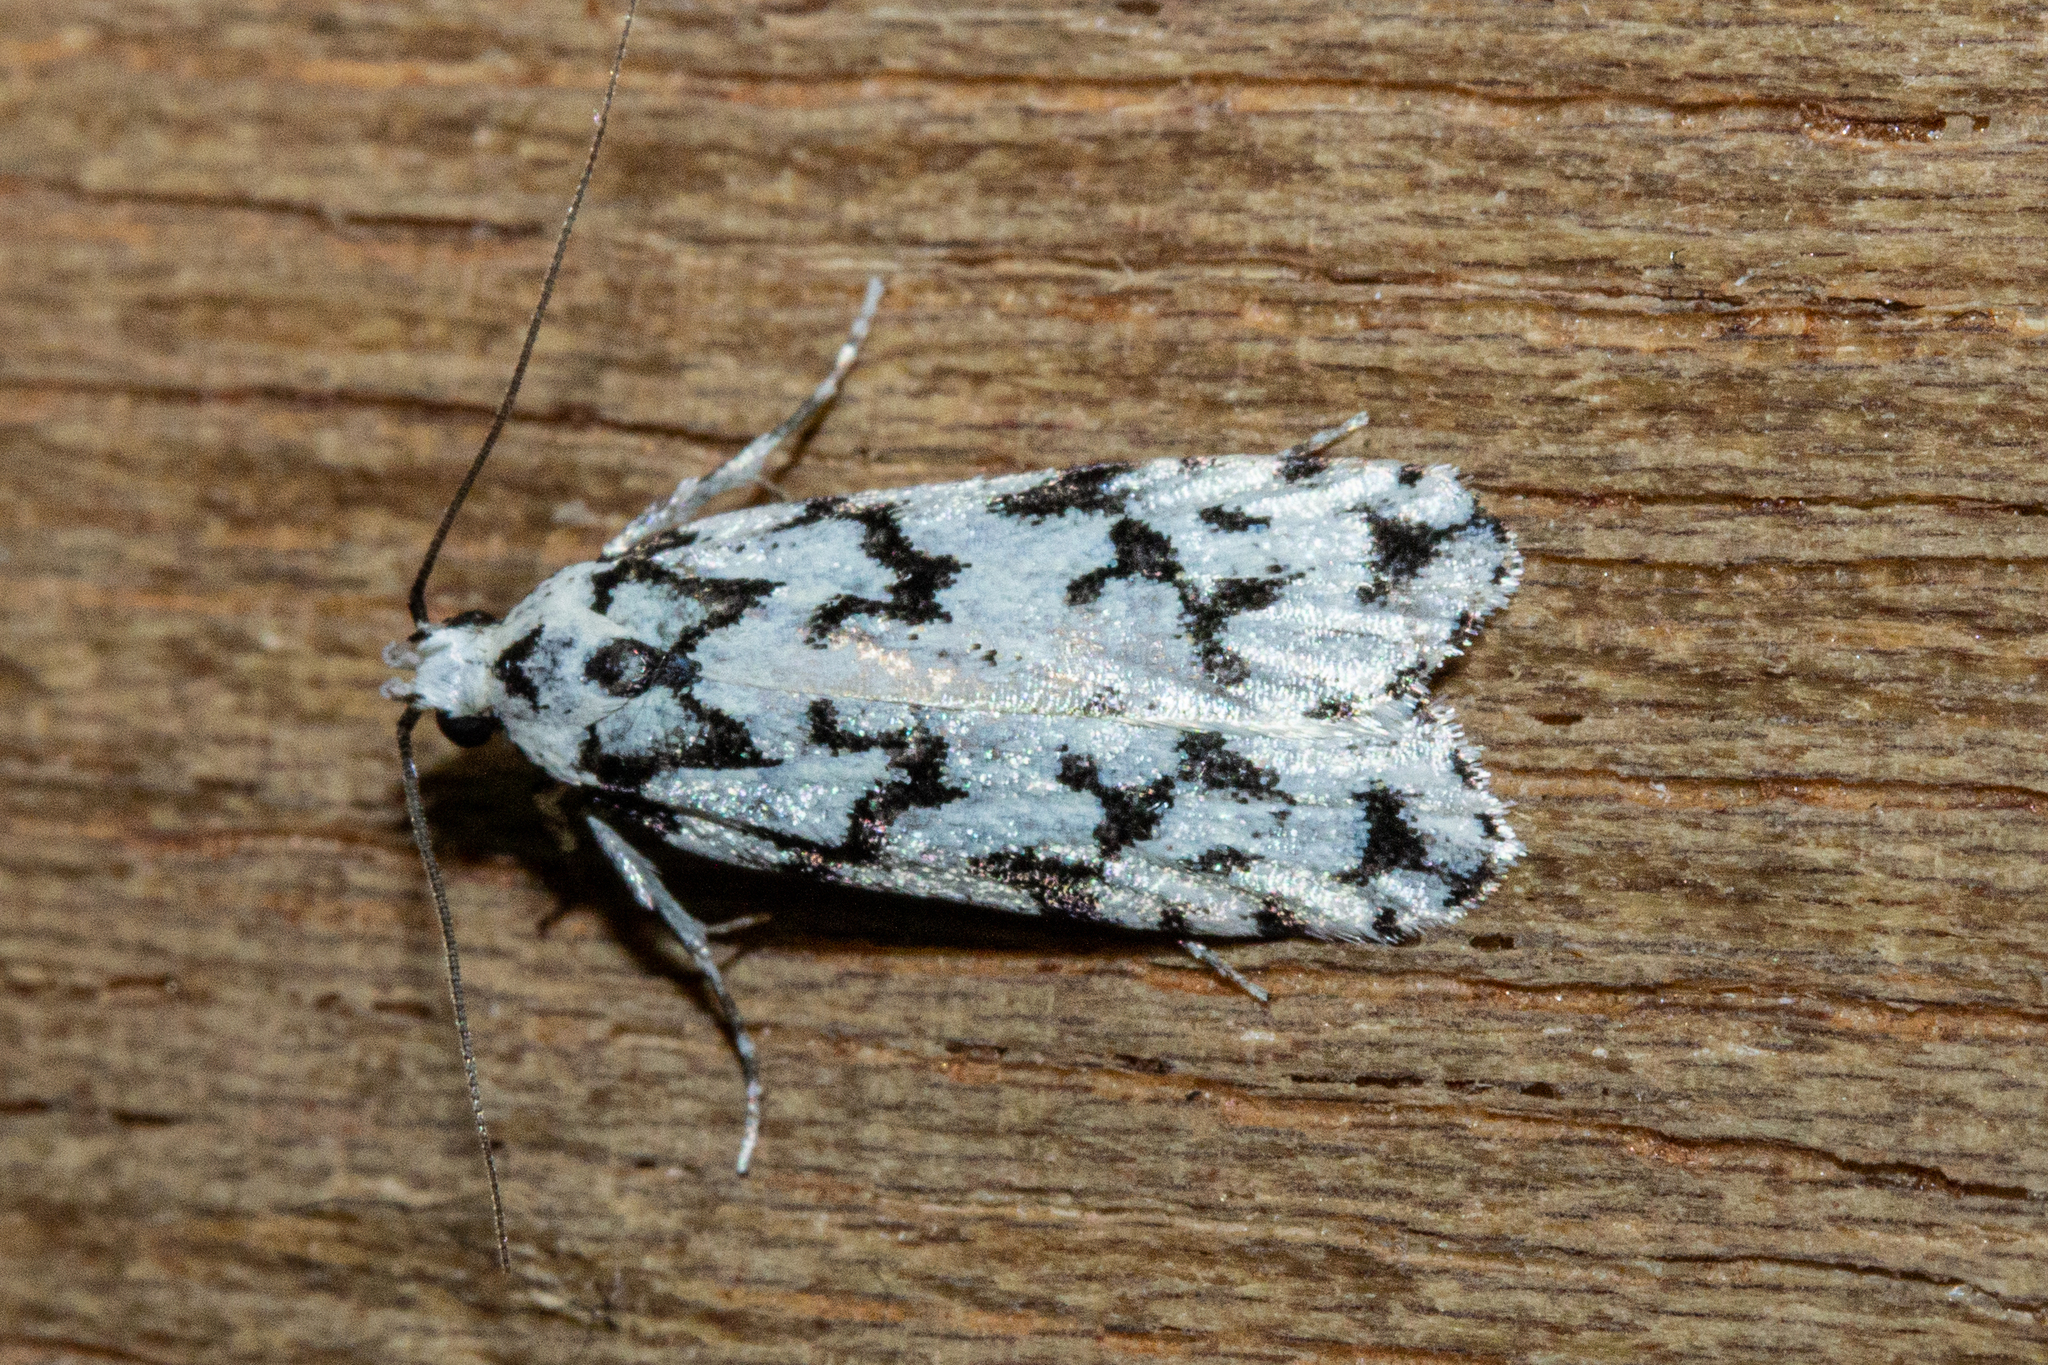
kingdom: Animalia
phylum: Arthropoda
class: Insecta
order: Lepidoptera
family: Oecophoridae
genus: Izatha
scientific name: Izatha katadiktya
